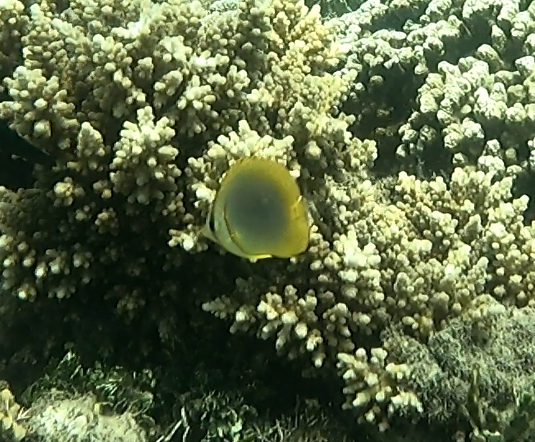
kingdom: Animalia
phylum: Chordata
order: Perciformes
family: Chaetodontidae
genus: Chaetodon
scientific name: Chaetodon aureofasciatus
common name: Golden butterflyfish
